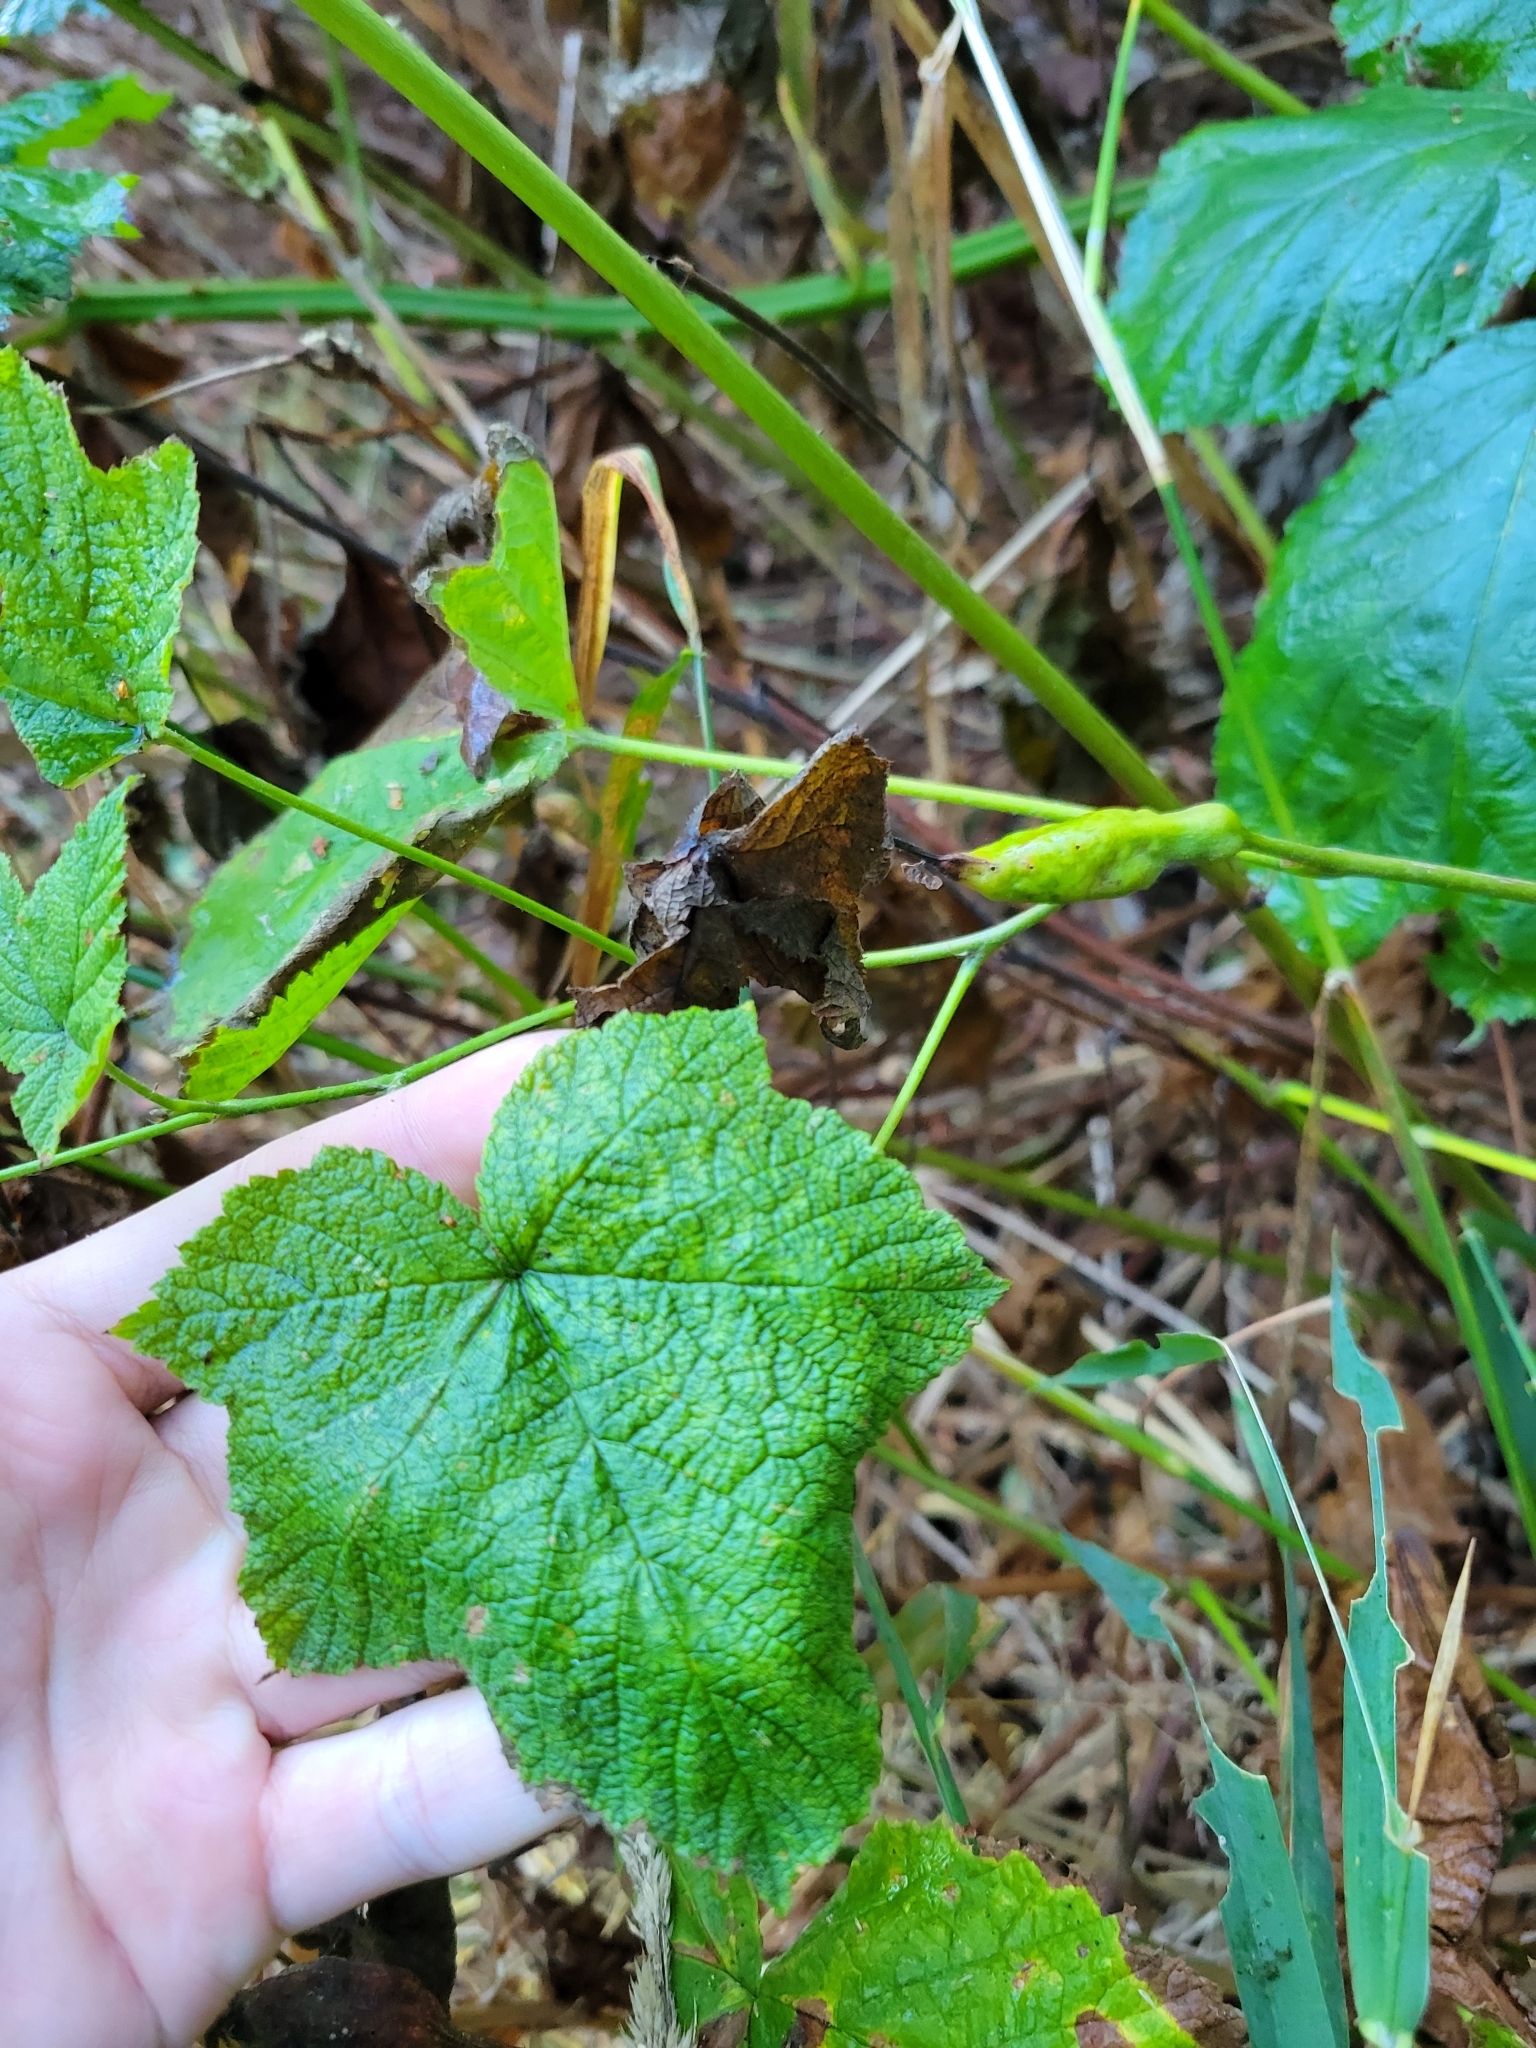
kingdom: Animalia
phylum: Arthropoda
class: Insecta
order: Hymenoptera
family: Cynipidae
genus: Diastrophus
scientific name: Diastrophus
